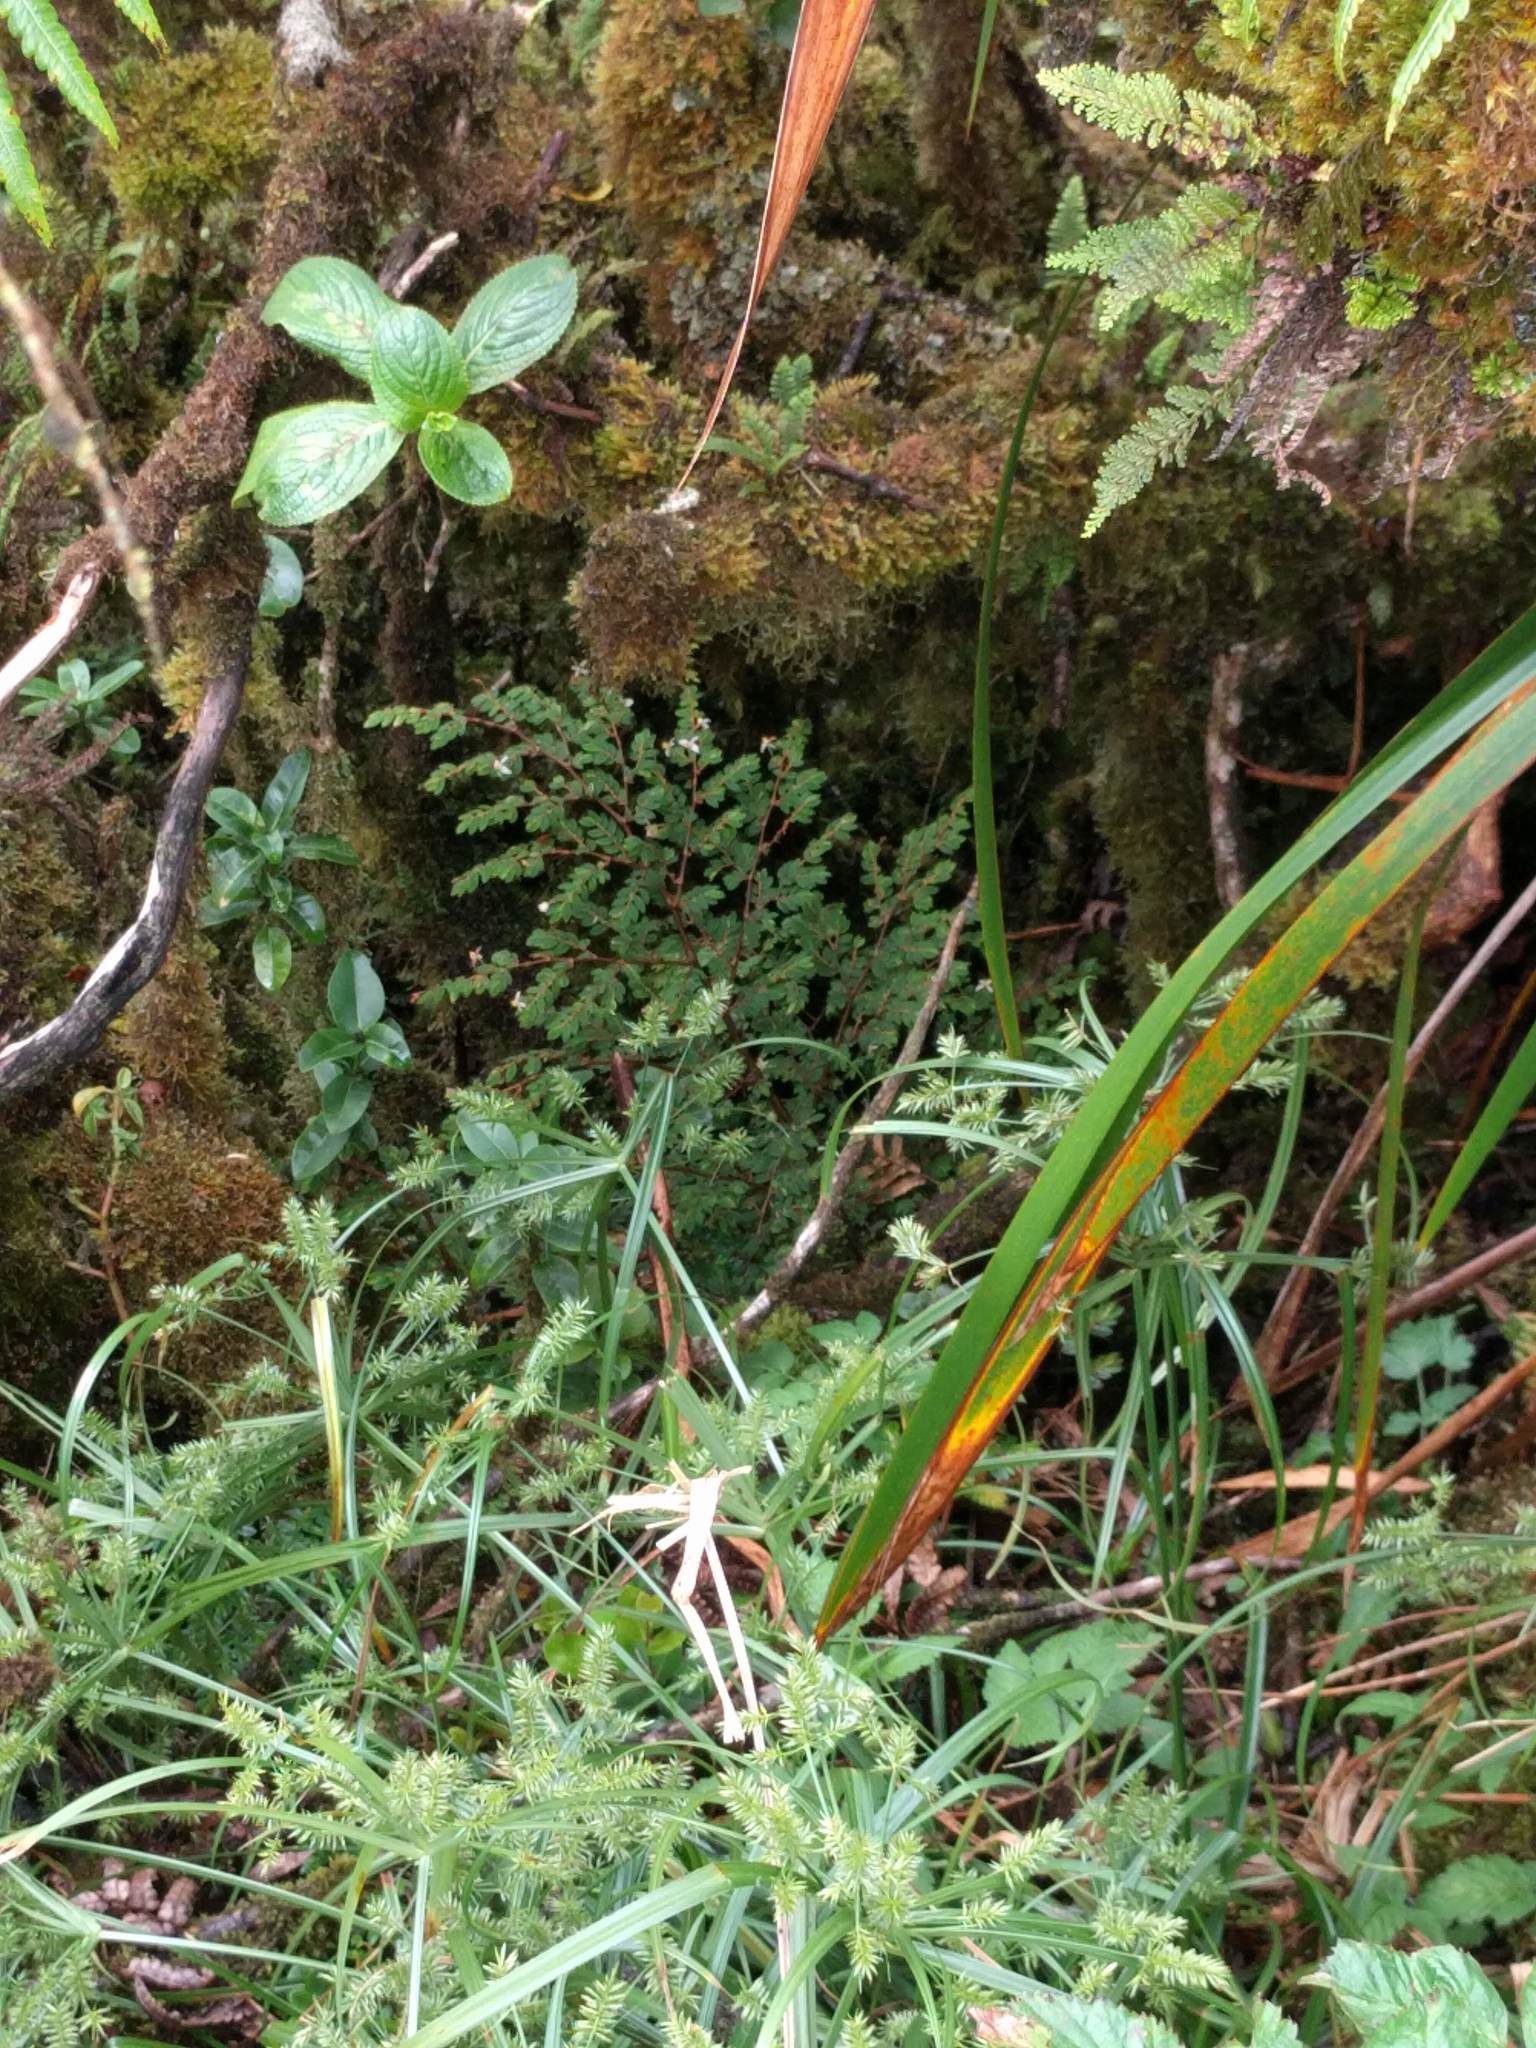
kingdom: Plantae
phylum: Tracheophyta
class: Magnoliopsida
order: Cucurbitales
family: Begoniaceae
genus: Begonia
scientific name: Begonia foliosa
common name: Fern begonia
